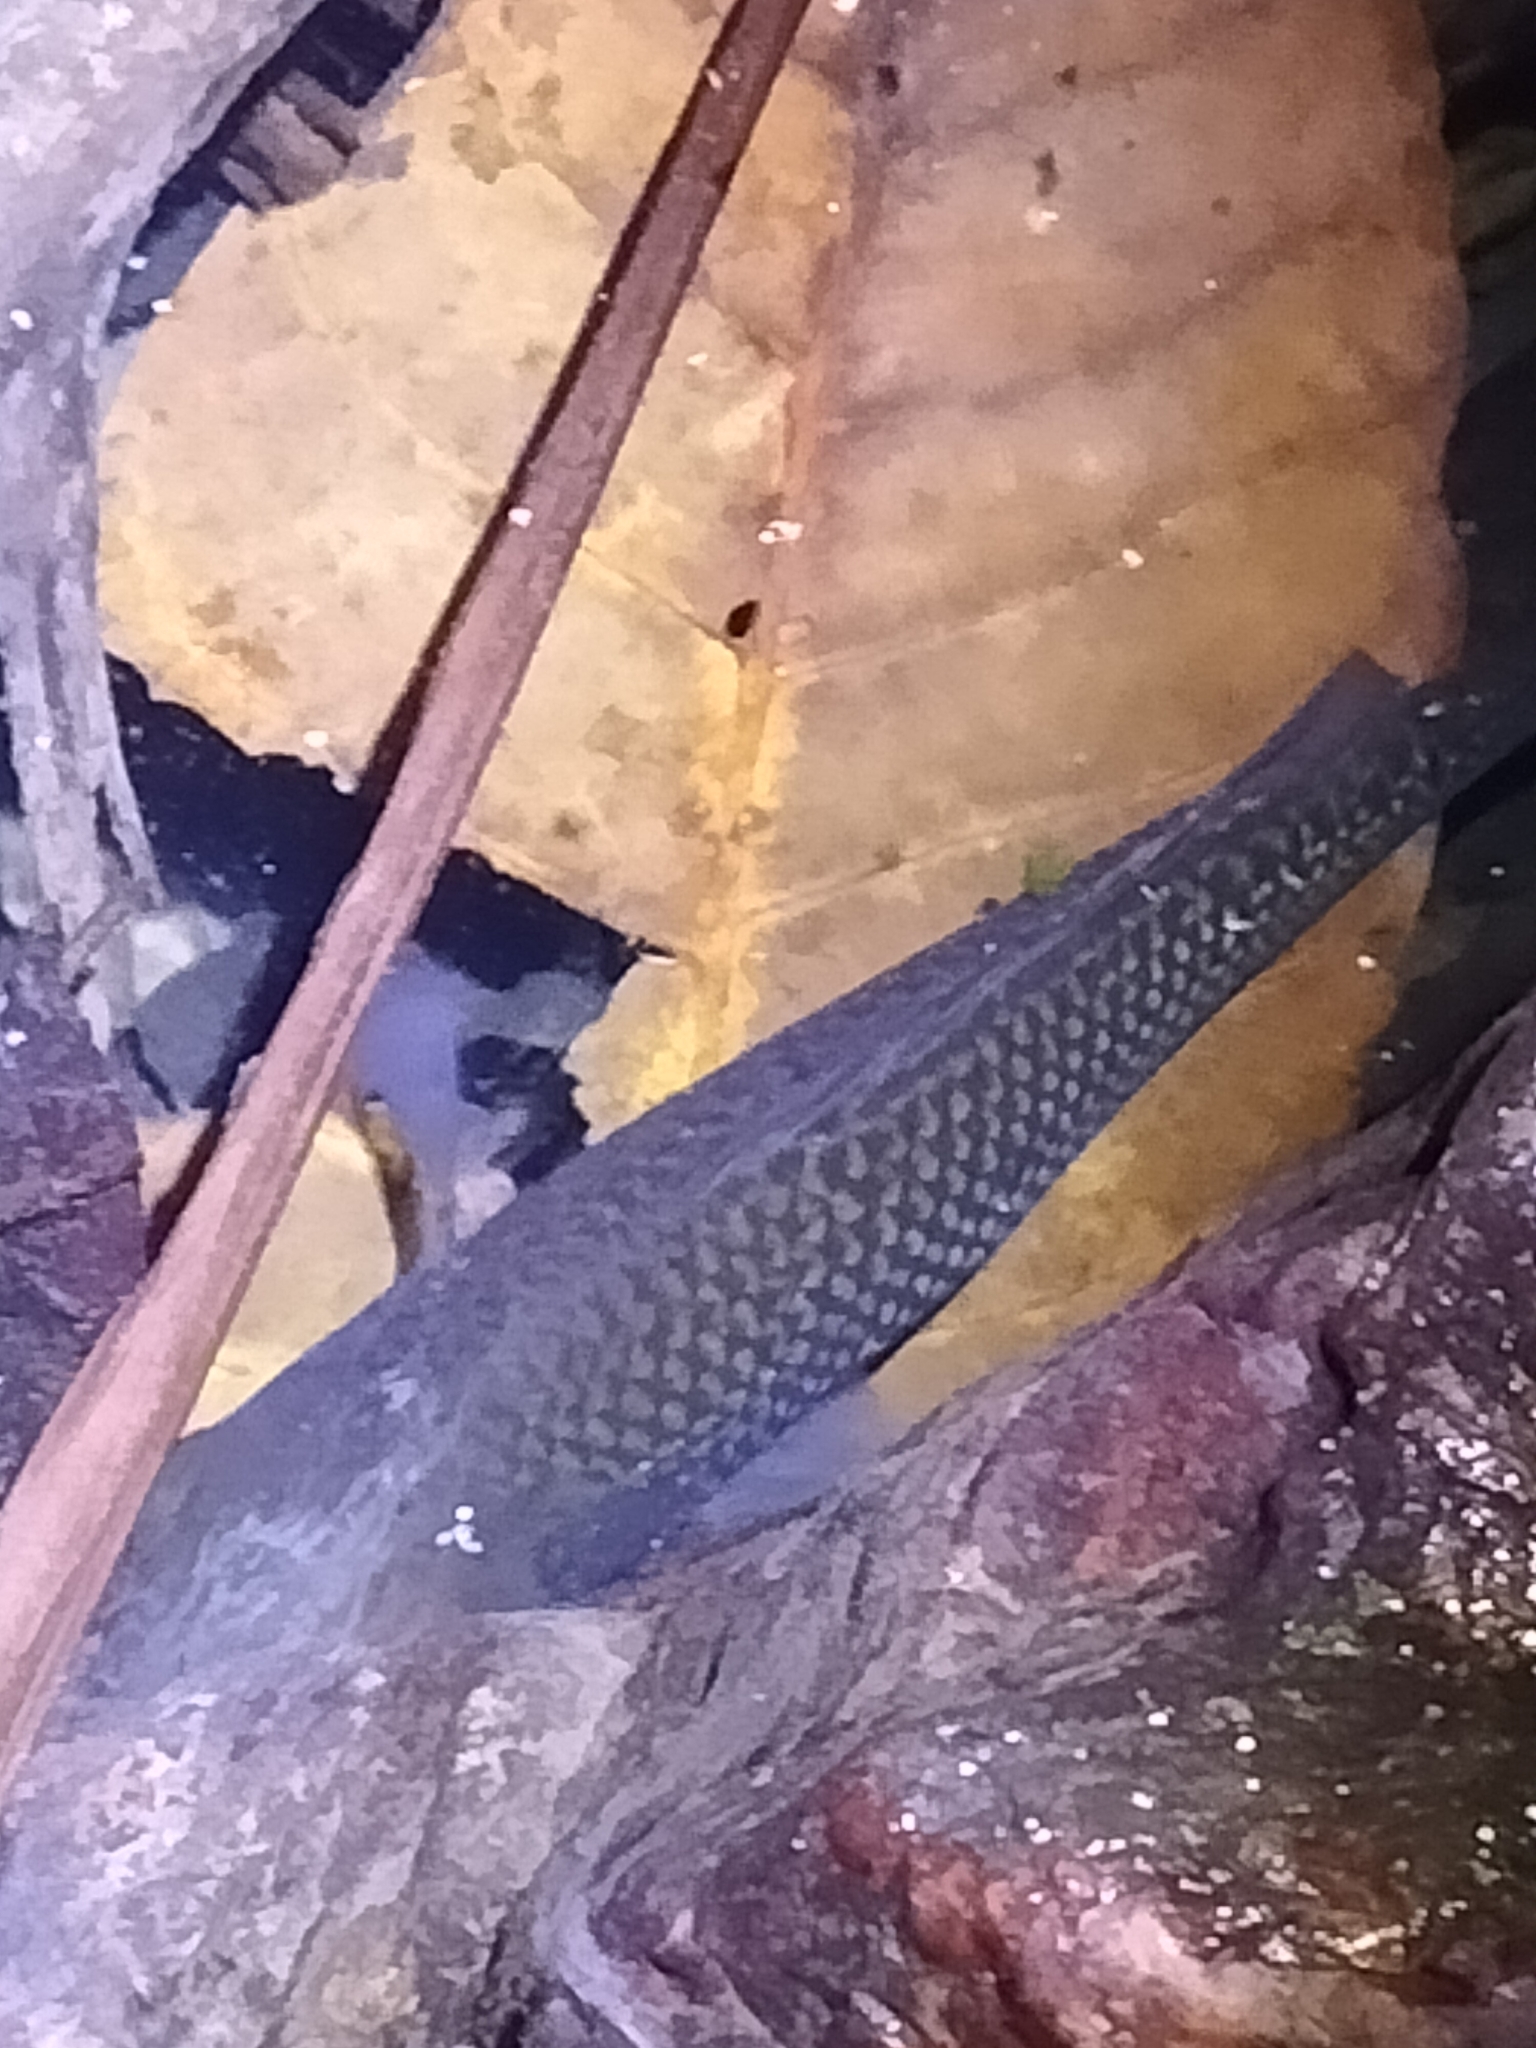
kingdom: Animalia
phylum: Chordata
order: Perciformes
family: Kuhliidae
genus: Kuhlia
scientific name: Kuhlia rupestris
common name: Rock flagtail
